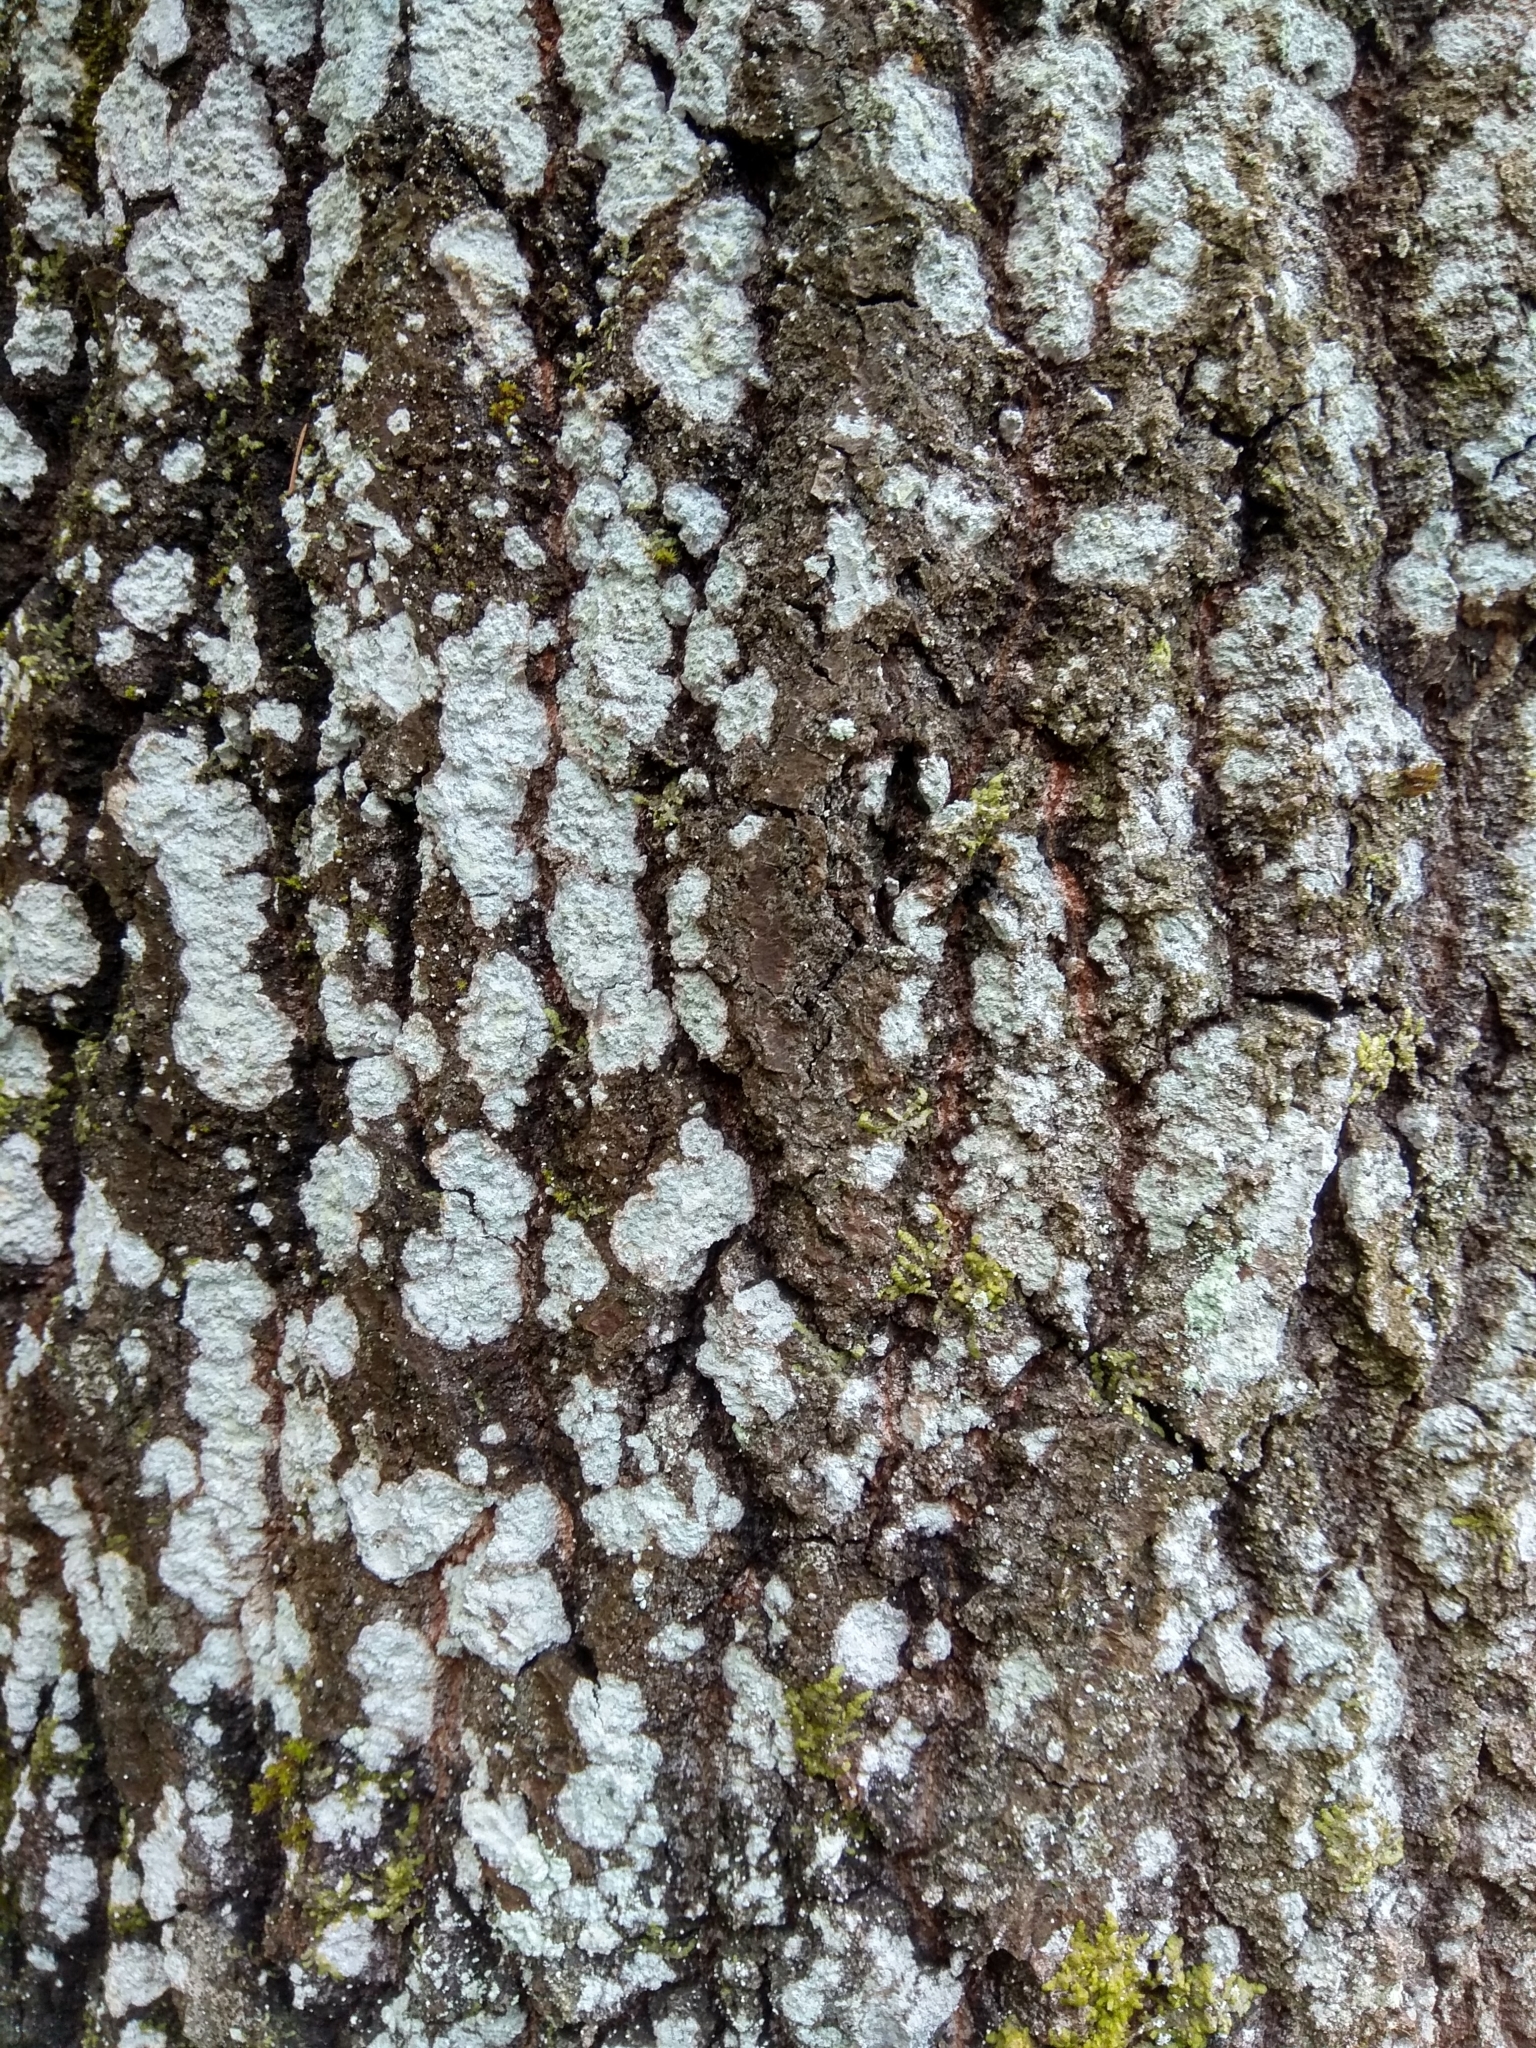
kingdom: Plantae
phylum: Tracheophyta
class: Magnoliopsida
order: Malpighiales
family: Salicaceae
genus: Populus
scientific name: Populus tremula
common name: European aspen
